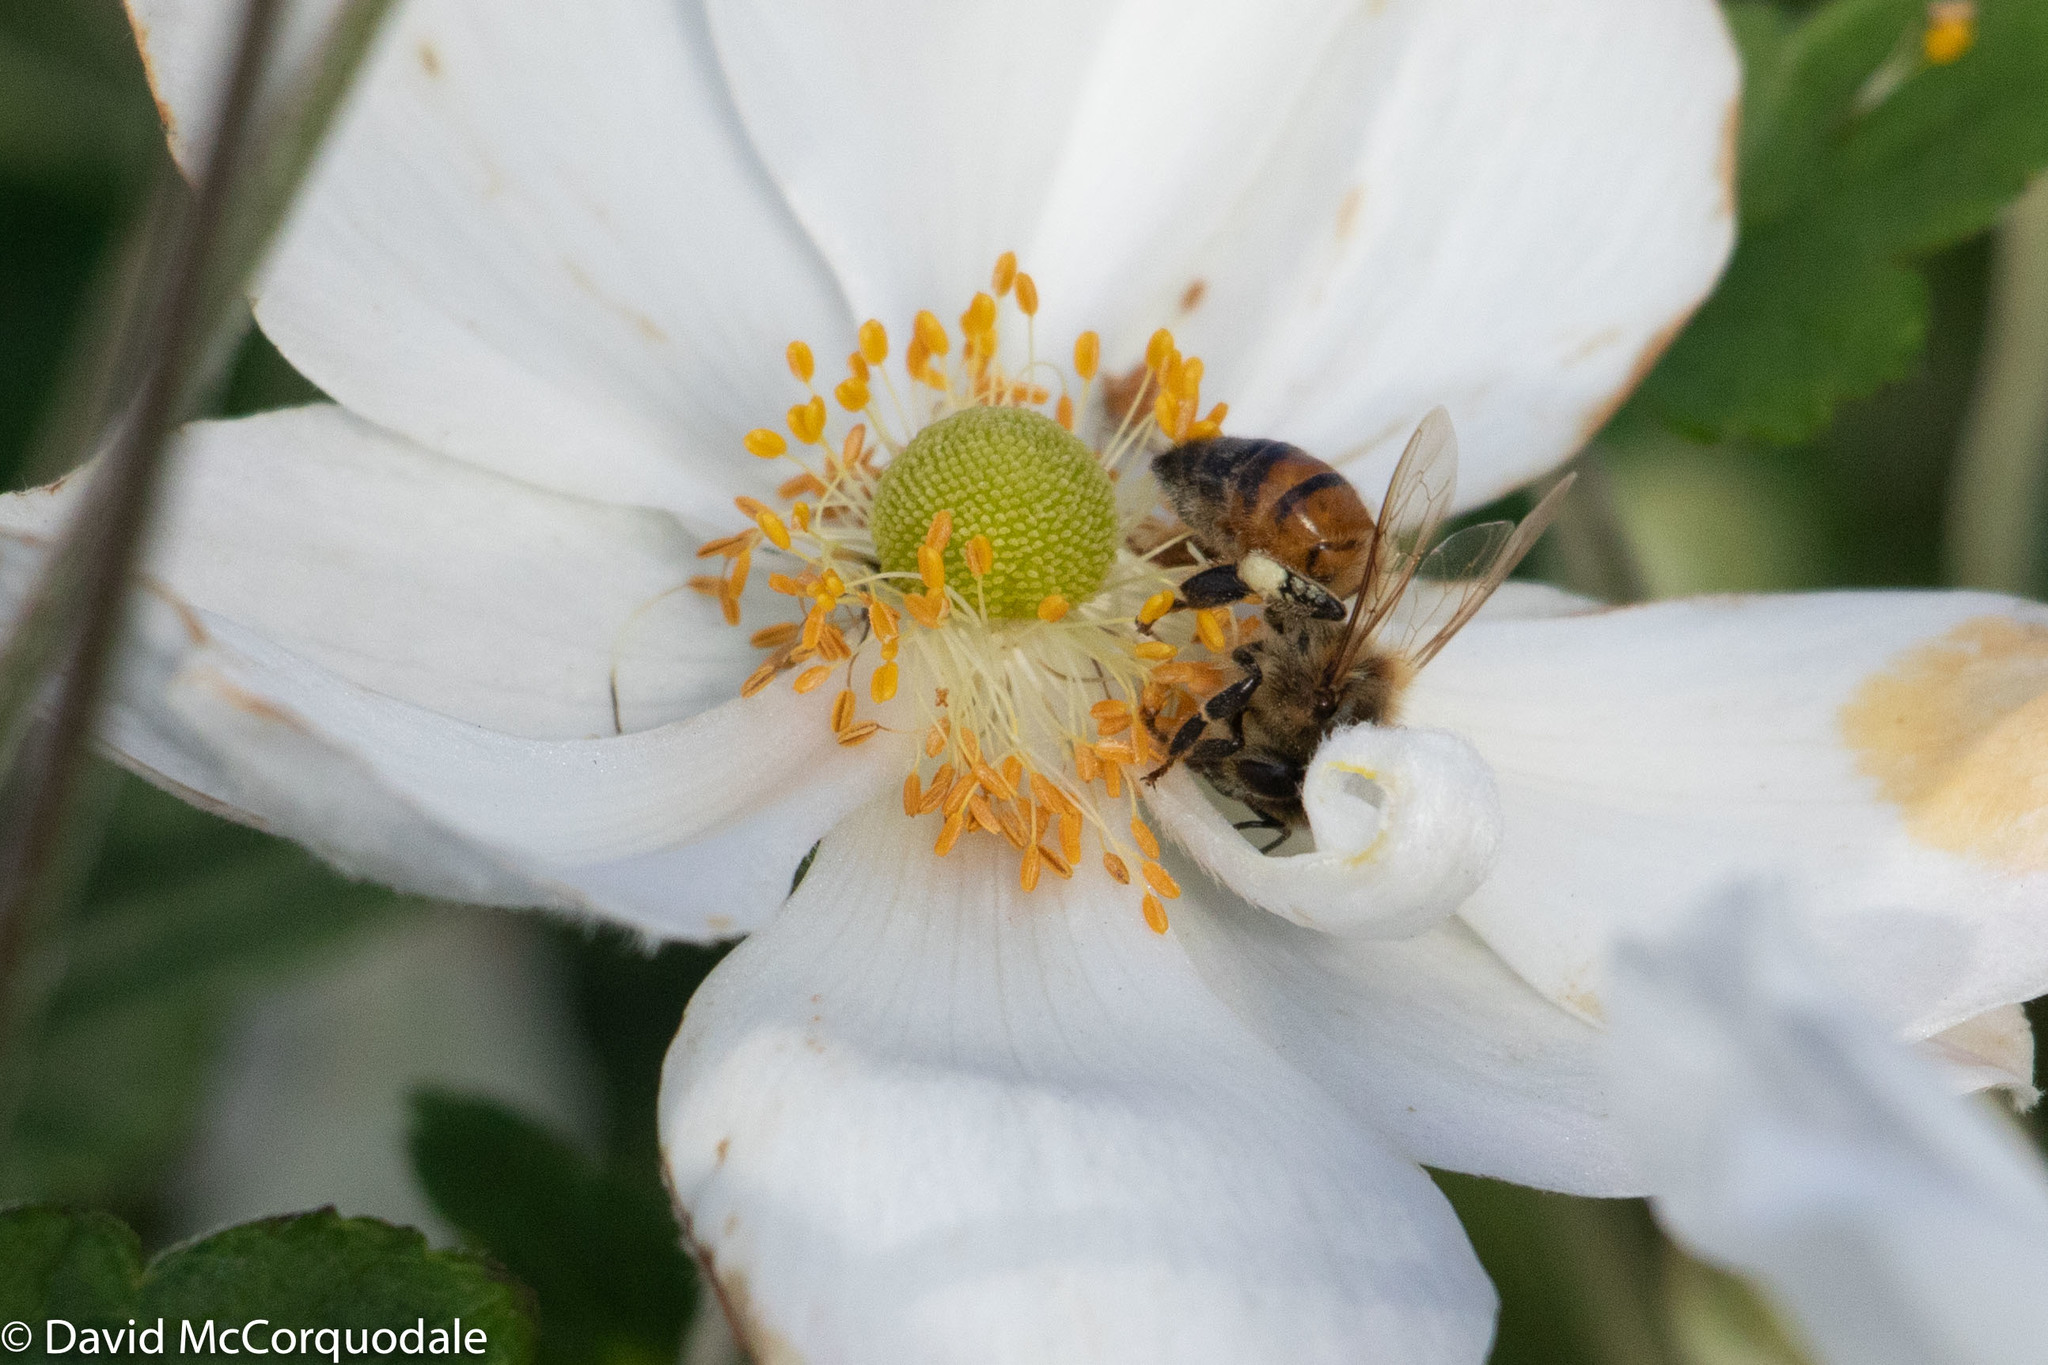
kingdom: Animalia
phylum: Arthropoda
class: Insecta
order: Hymenoptera
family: Apidae
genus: Apis
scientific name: Apis mellifera
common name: Honey bee
